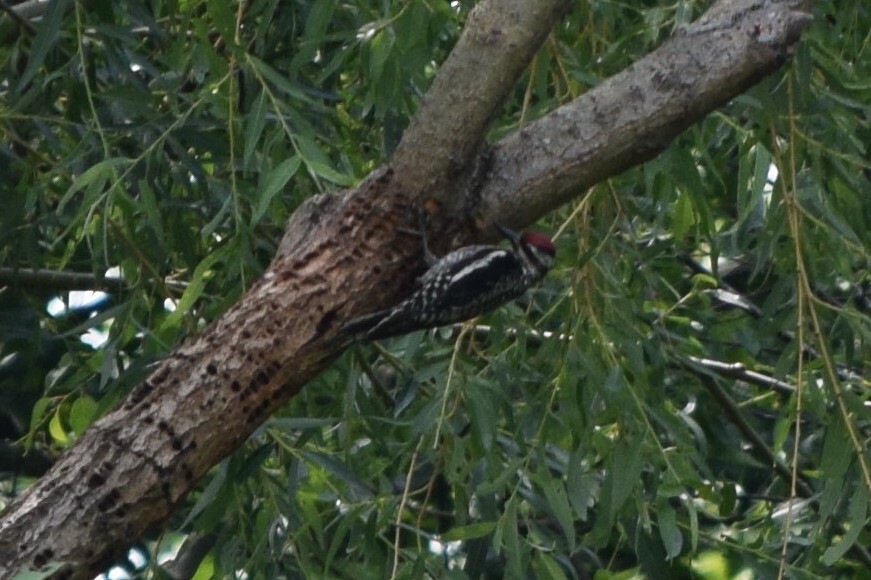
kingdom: Animalia
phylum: Chordata
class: Aves
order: Piciformes
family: Picidae
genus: Sphyrapicus
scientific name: Sphyrapicus varius
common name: Yellow-bellied sapsucker
